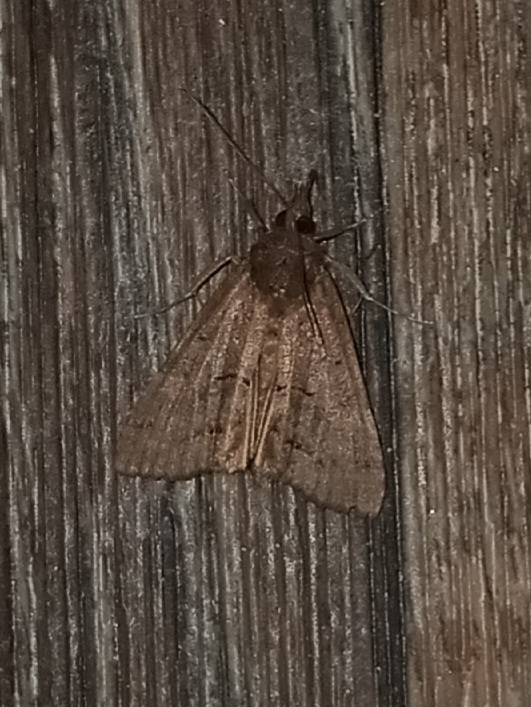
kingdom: Animalia
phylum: Arthropoda
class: Insecta
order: Lepidoptera
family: Erebidae
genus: Hypena
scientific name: Hypena scabra
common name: Green cloverworm
